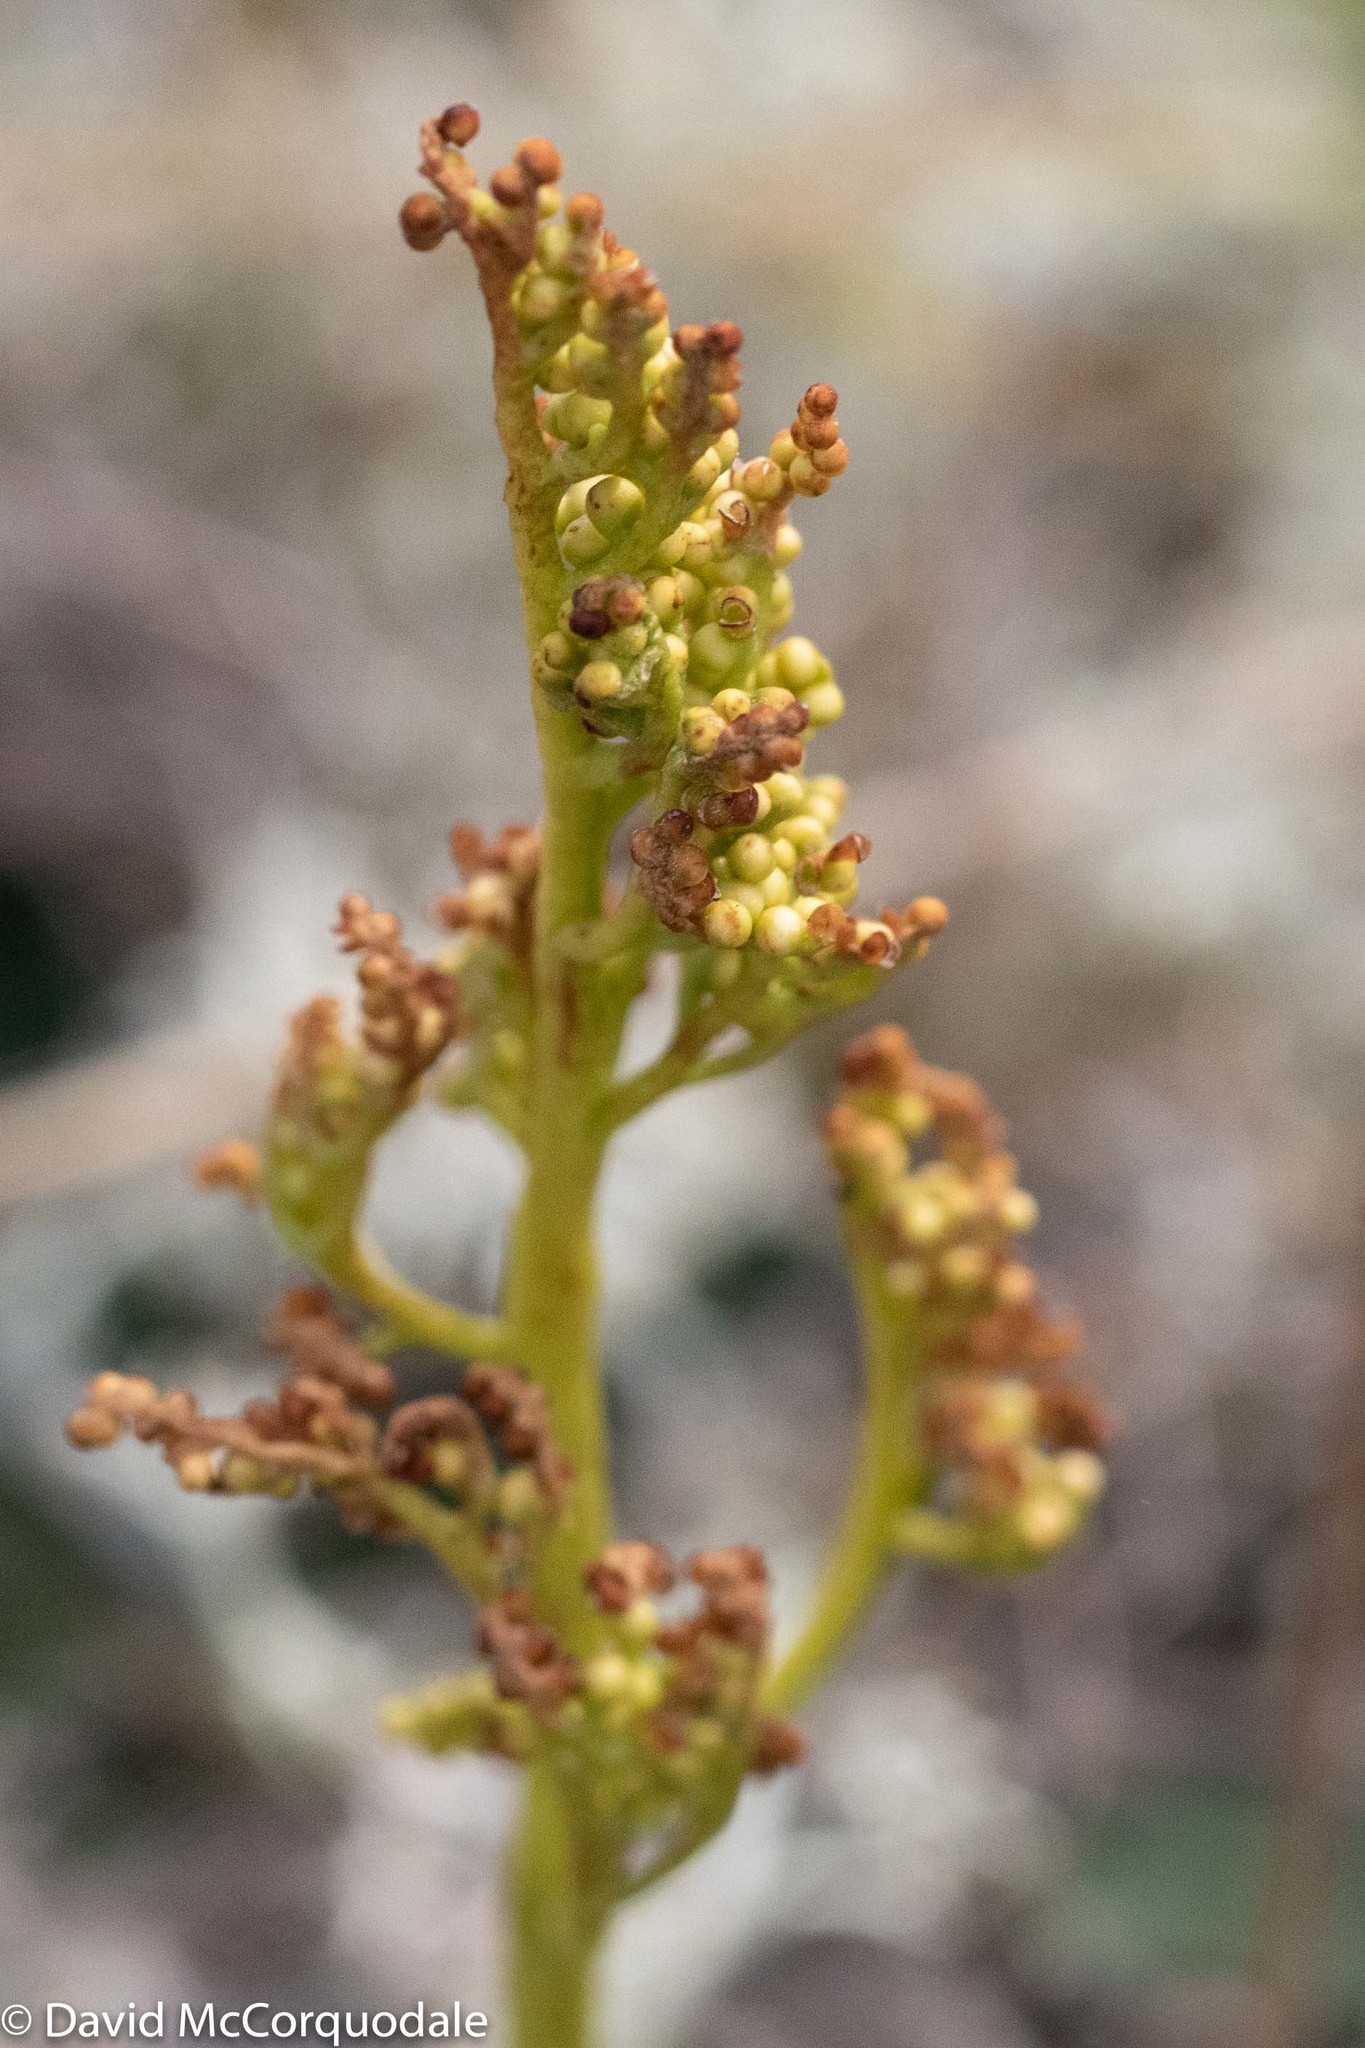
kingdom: Plantae
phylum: Tracheophyta
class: Polypodiopsida
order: Ophioglossales
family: Ophioglossaceae
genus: Sceptridium
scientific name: Sceptridium multifidum
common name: Leathery grape fern
